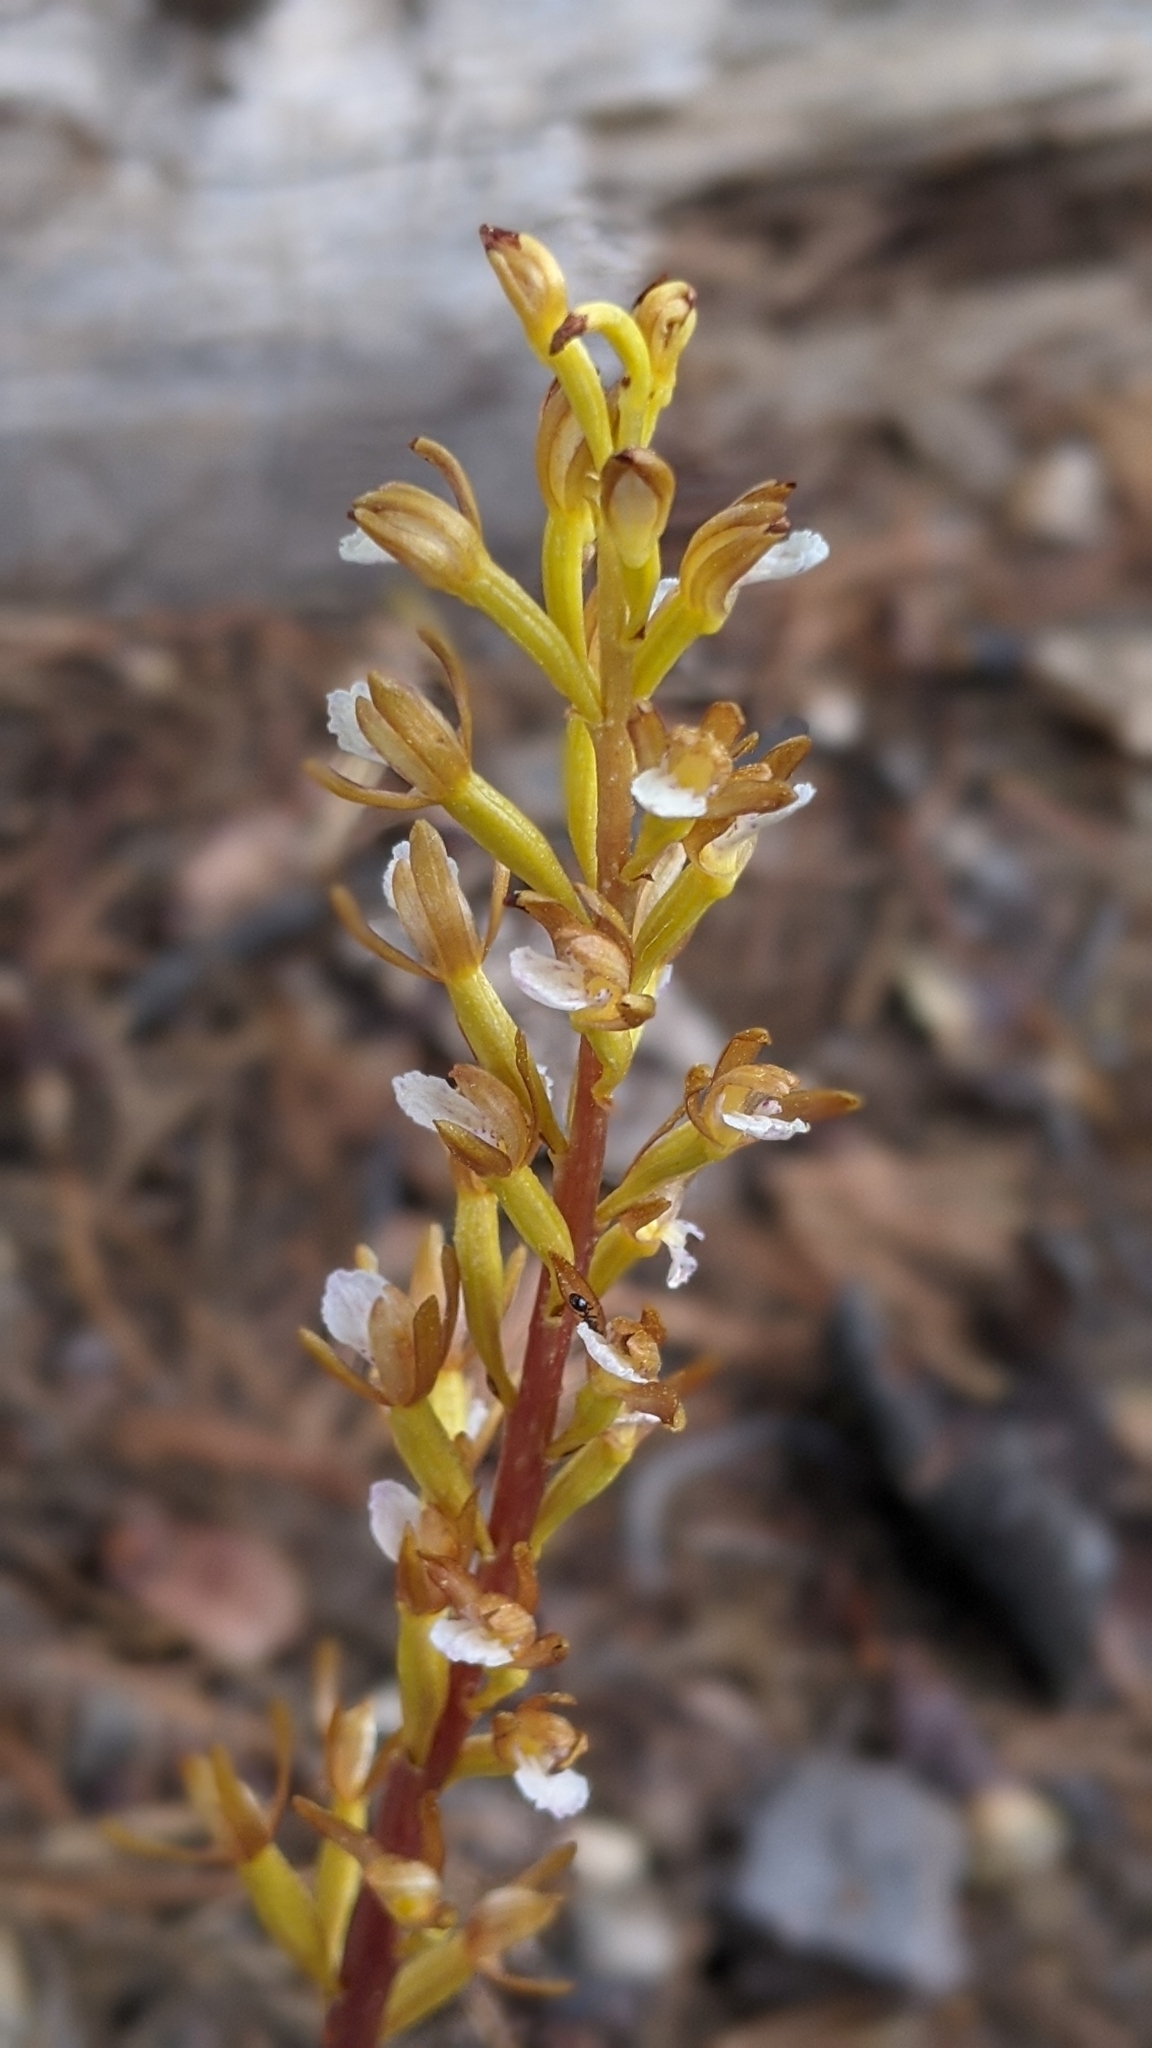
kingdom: Plantae
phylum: Tracheophyta
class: Liliopsida
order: Asparagales
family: Orchidaceae
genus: Corallorhiza
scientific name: Corallorhiza maculata
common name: Spotted coralroot
